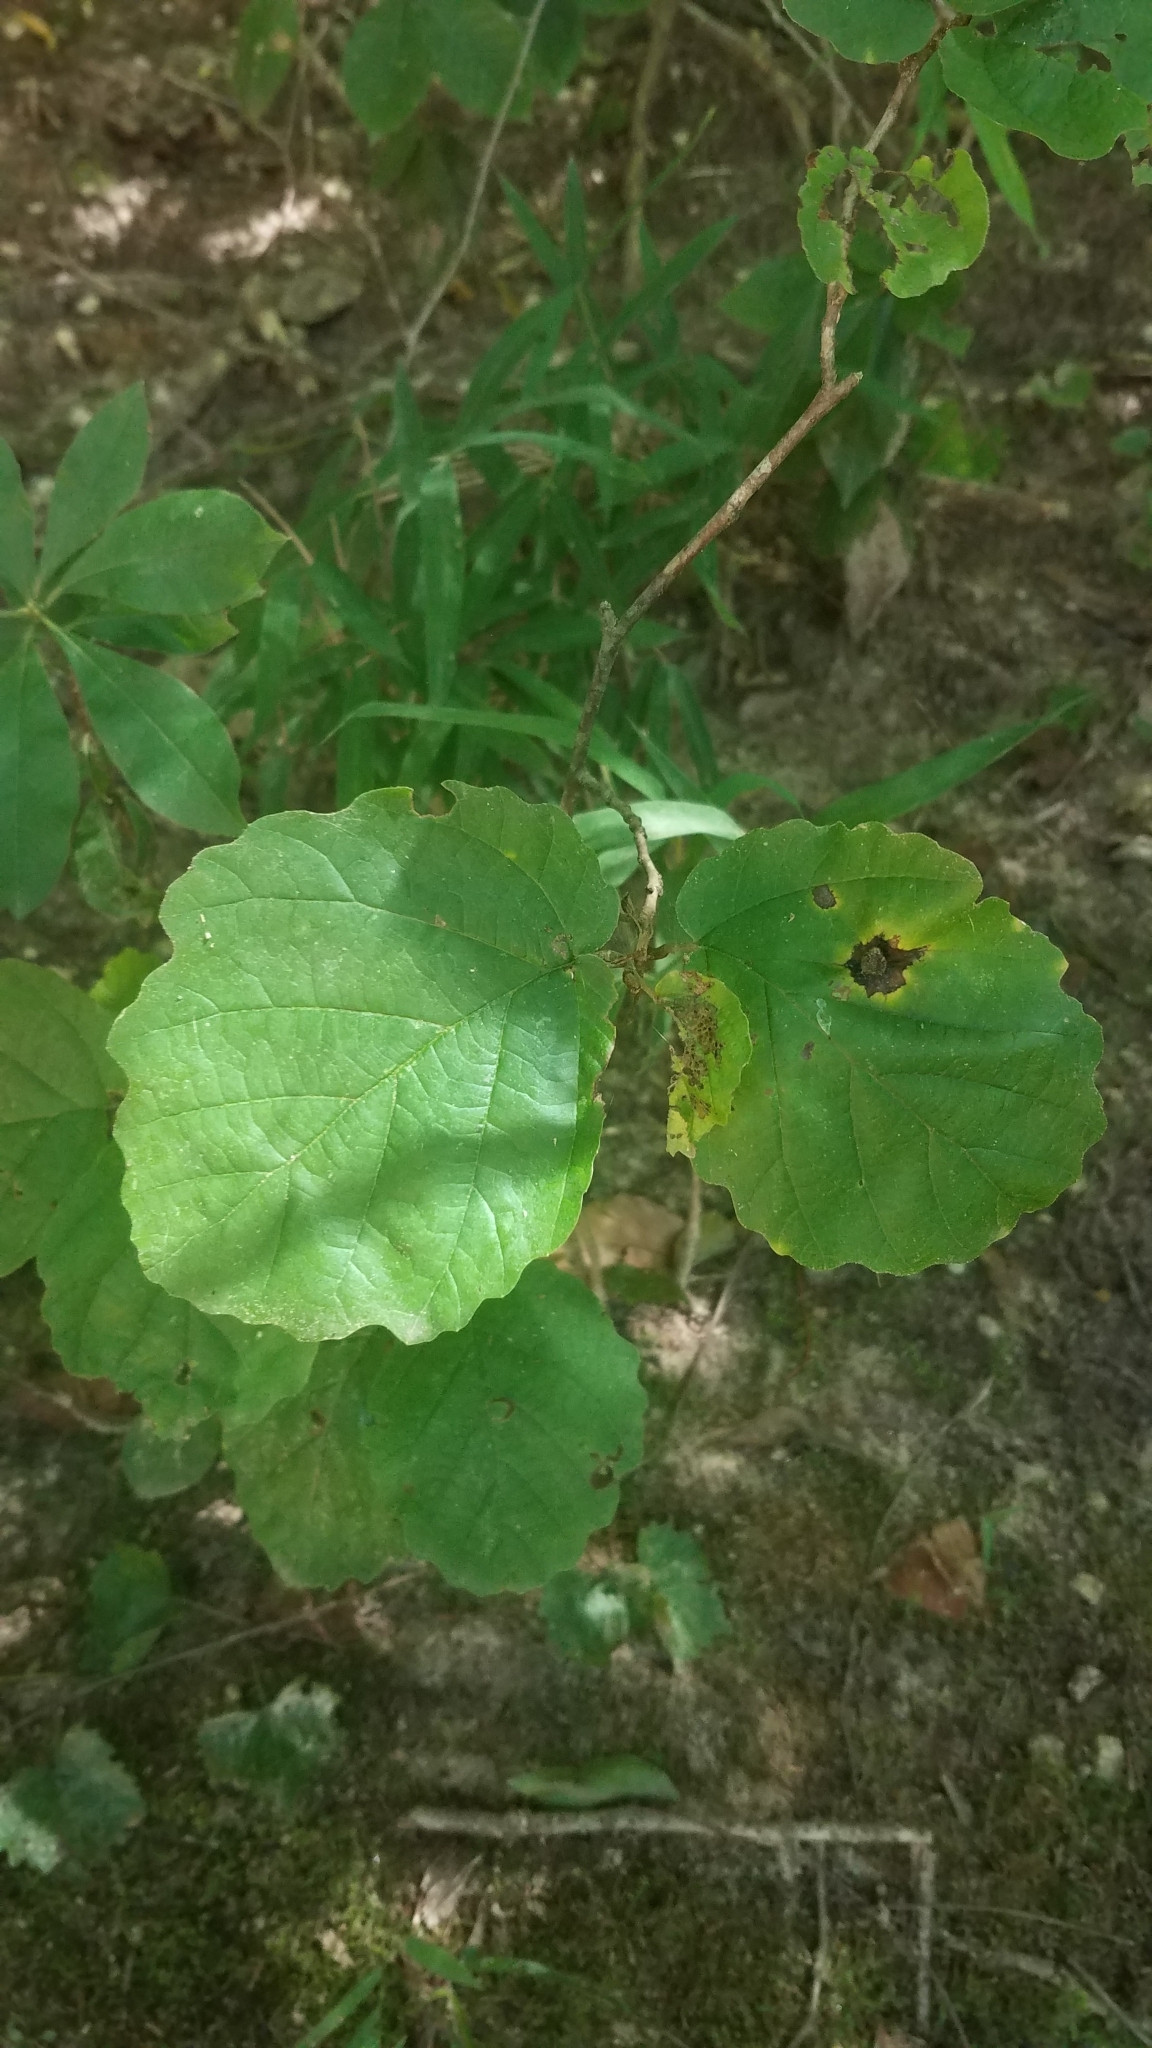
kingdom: Plantae
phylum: Tracheophyta
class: Magnoliopsida
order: Saxifragales
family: Hamamelidaceae
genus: Hamamelis
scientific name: Hamamelis virginiana
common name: Witch-hazel
